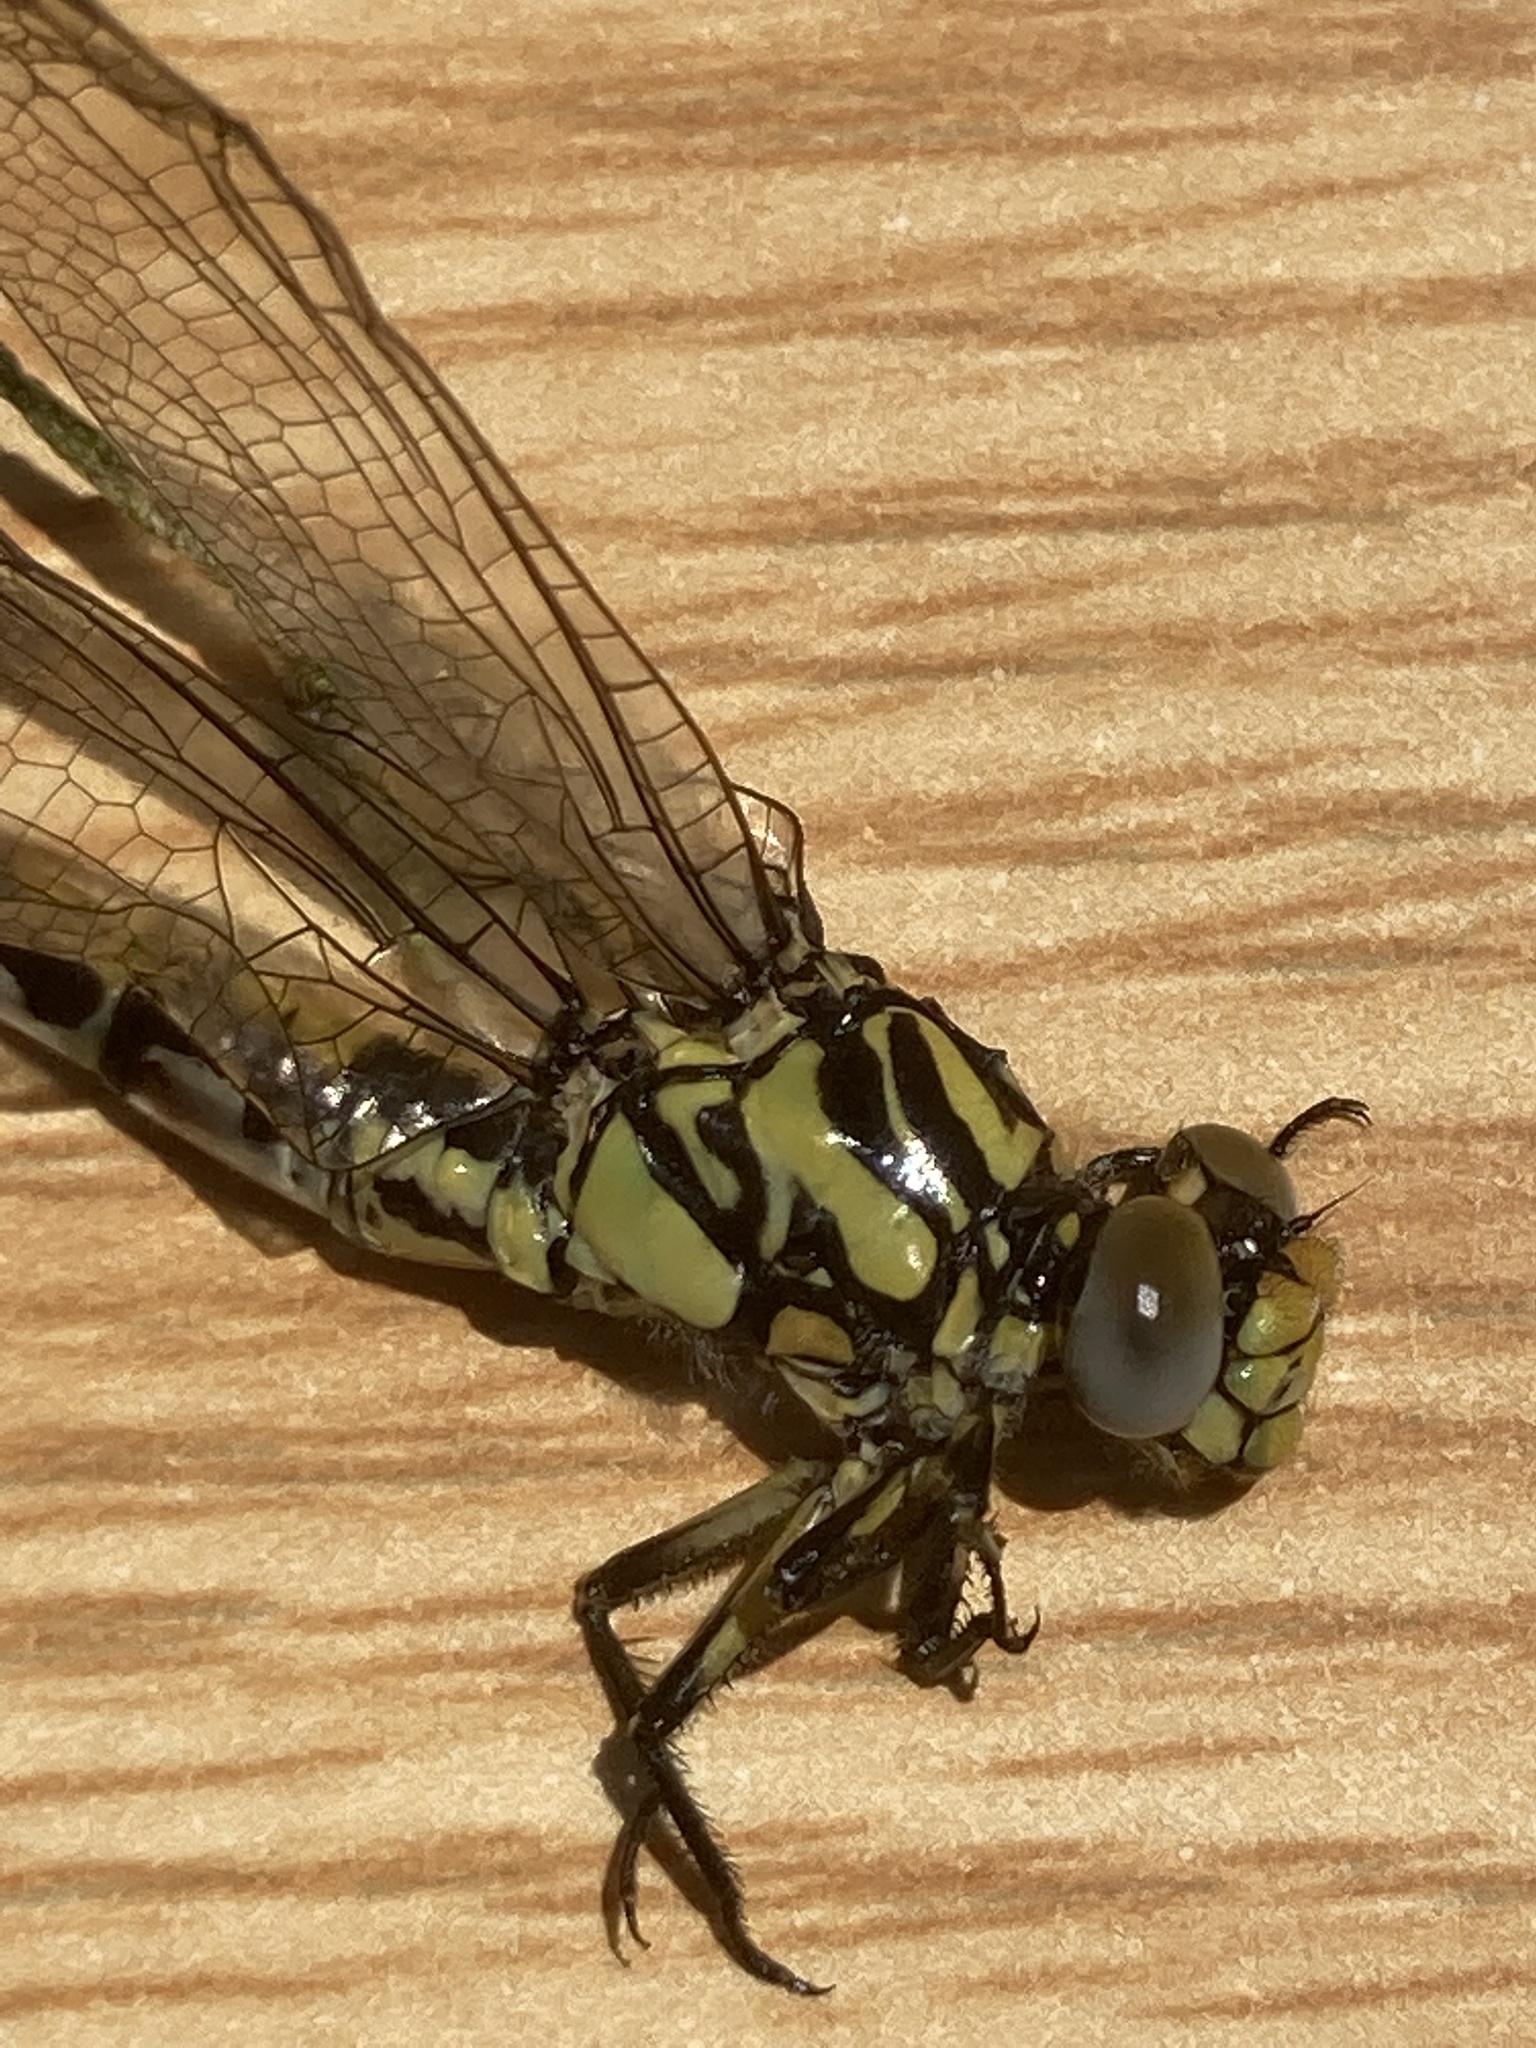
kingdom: Animalia
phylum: Arthropoda
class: Insecta
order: Odonata
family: Gomphidae
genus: Onychogomphus
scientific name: Onychogomphus uncatus
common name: Large pincertail
